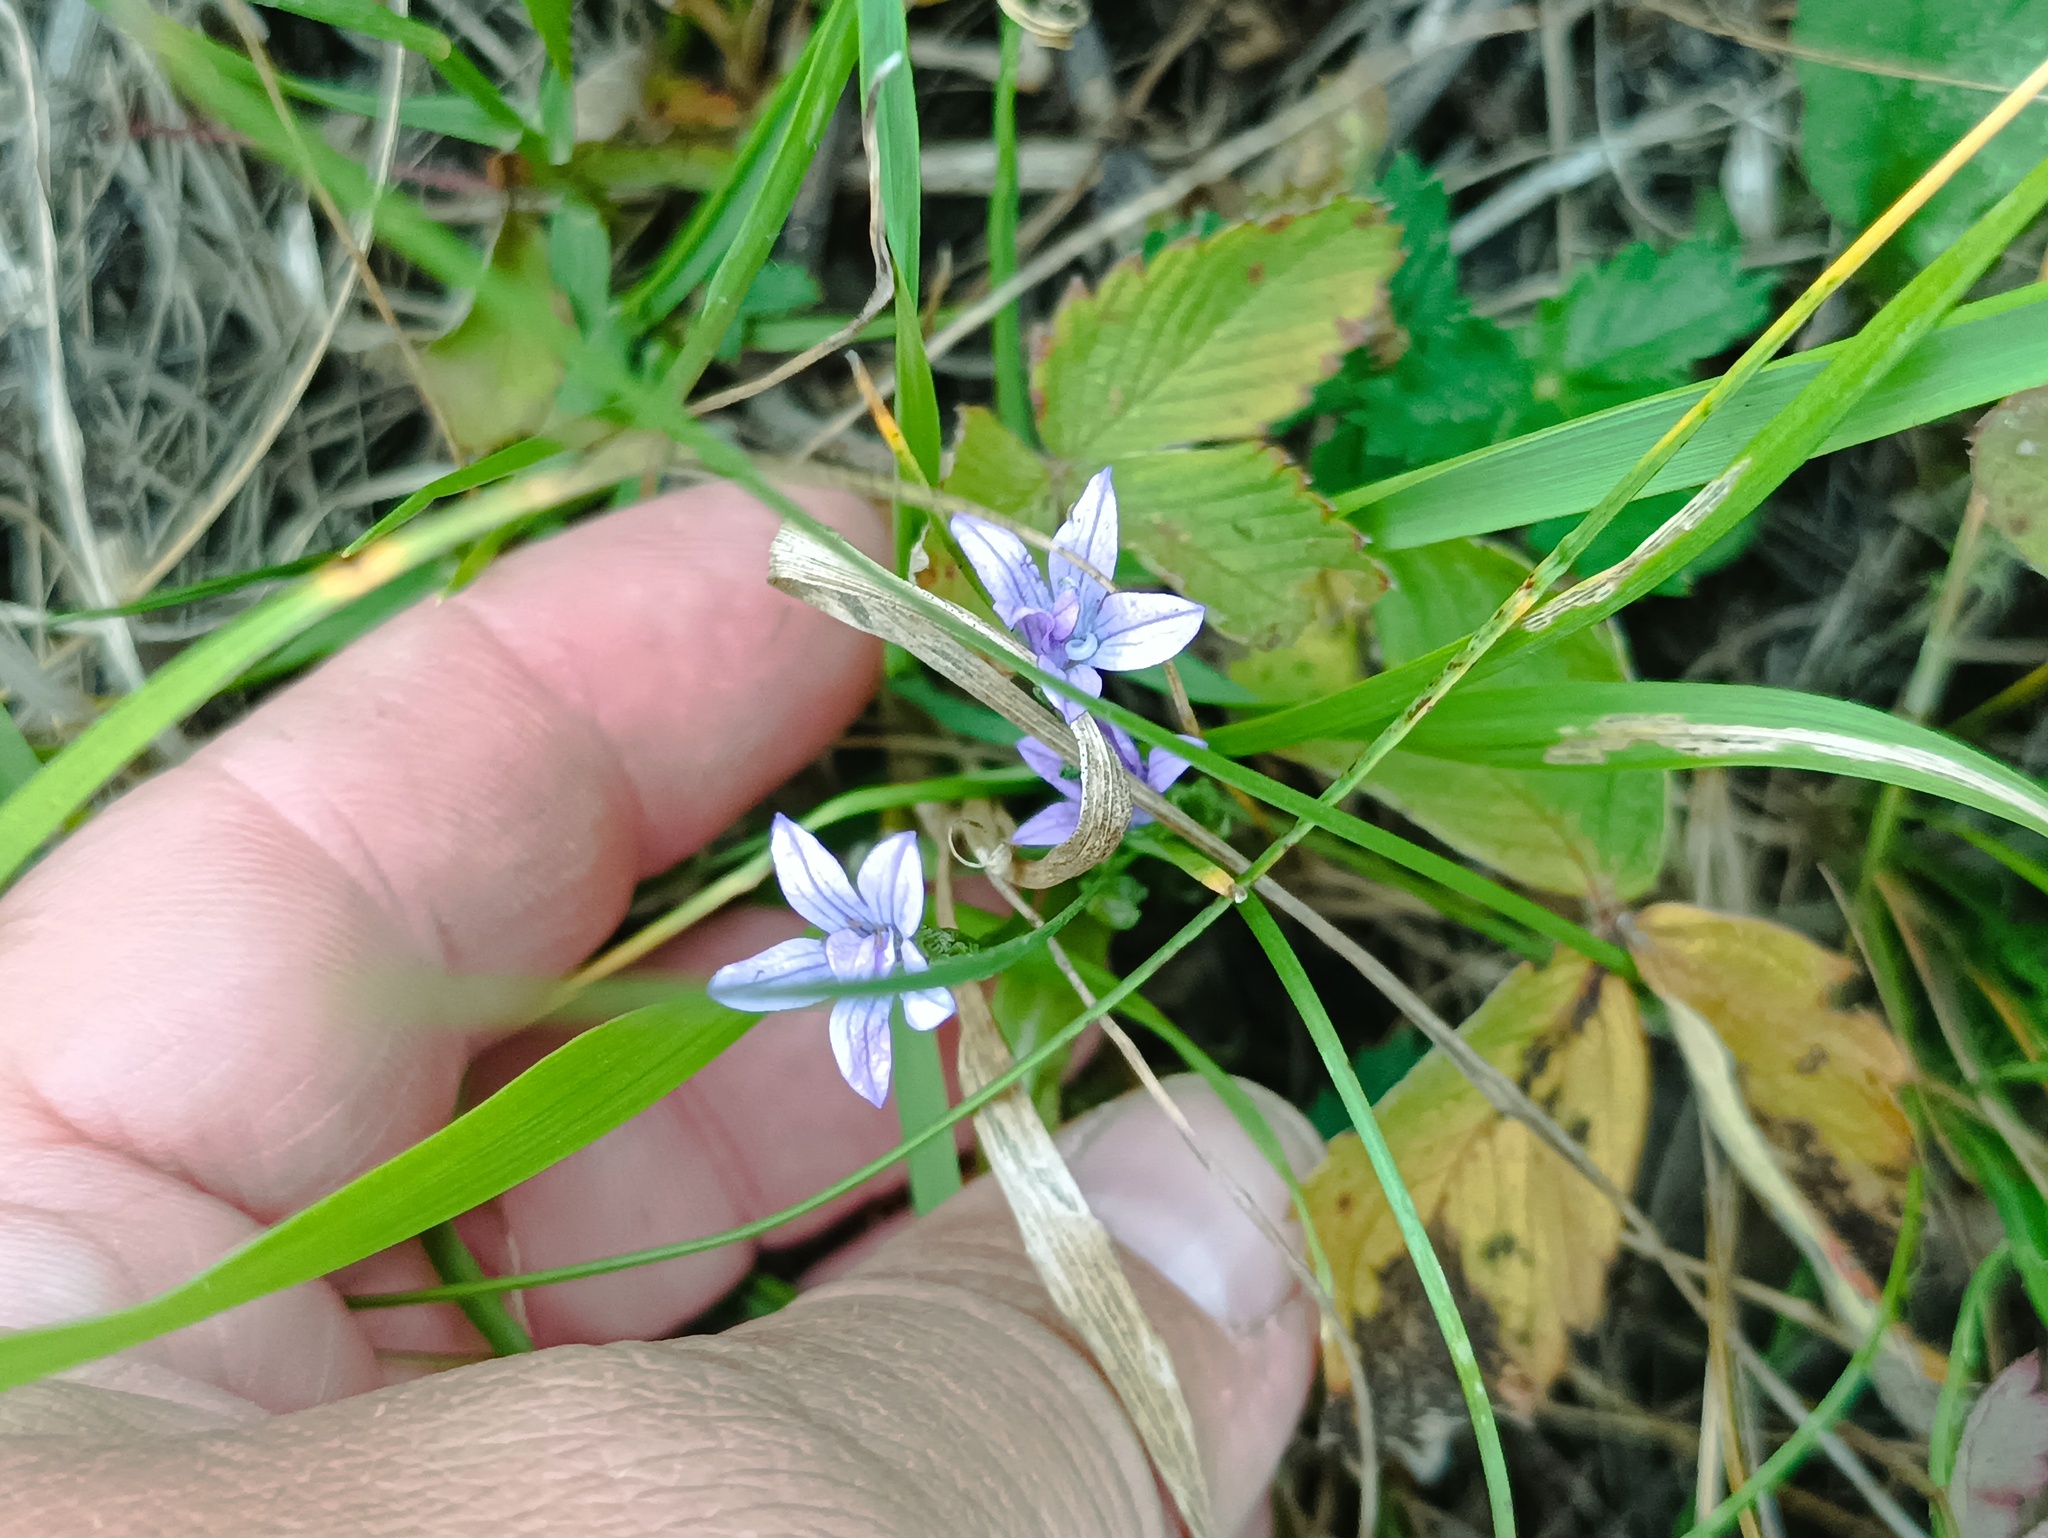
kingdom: Plantae
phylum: Tracheophyta
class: Magnoliopsida
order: Asterales
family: Campanulaceae
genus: Campanula
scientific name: Campanula patula
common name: Spreading bellflower
